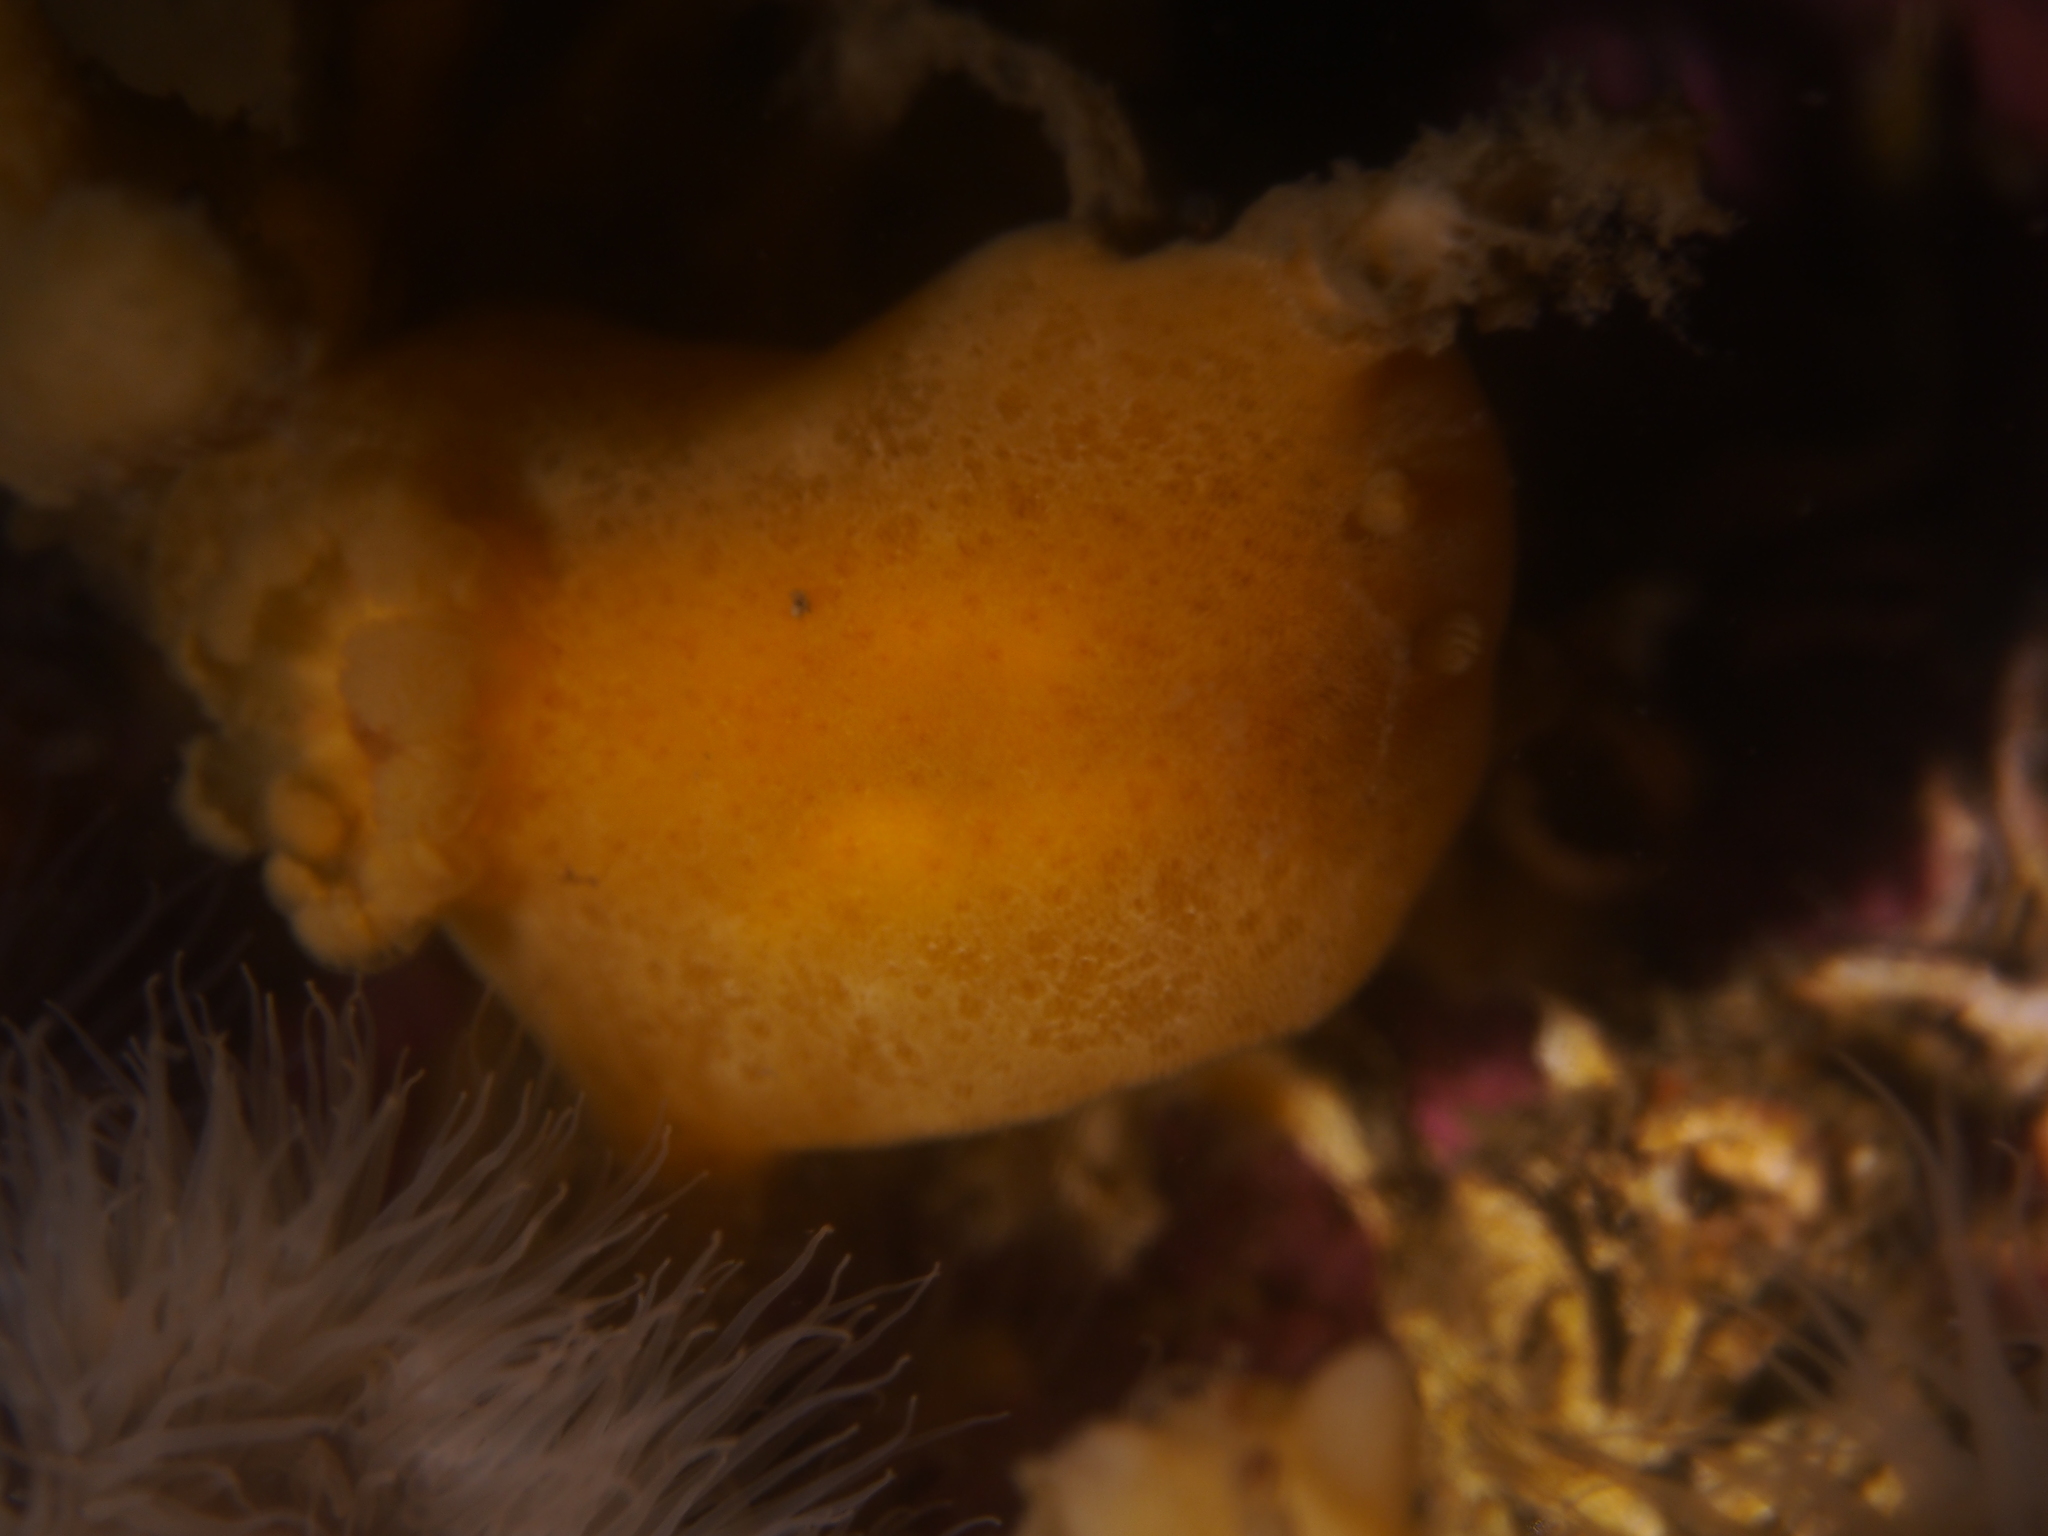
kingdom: Animalia
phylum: Mollusca
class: Gastropoda
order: Nudibranchia
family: Discodorididae
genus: Jorunna
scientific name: Jorunna tomentosa
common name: Grey sea slug
